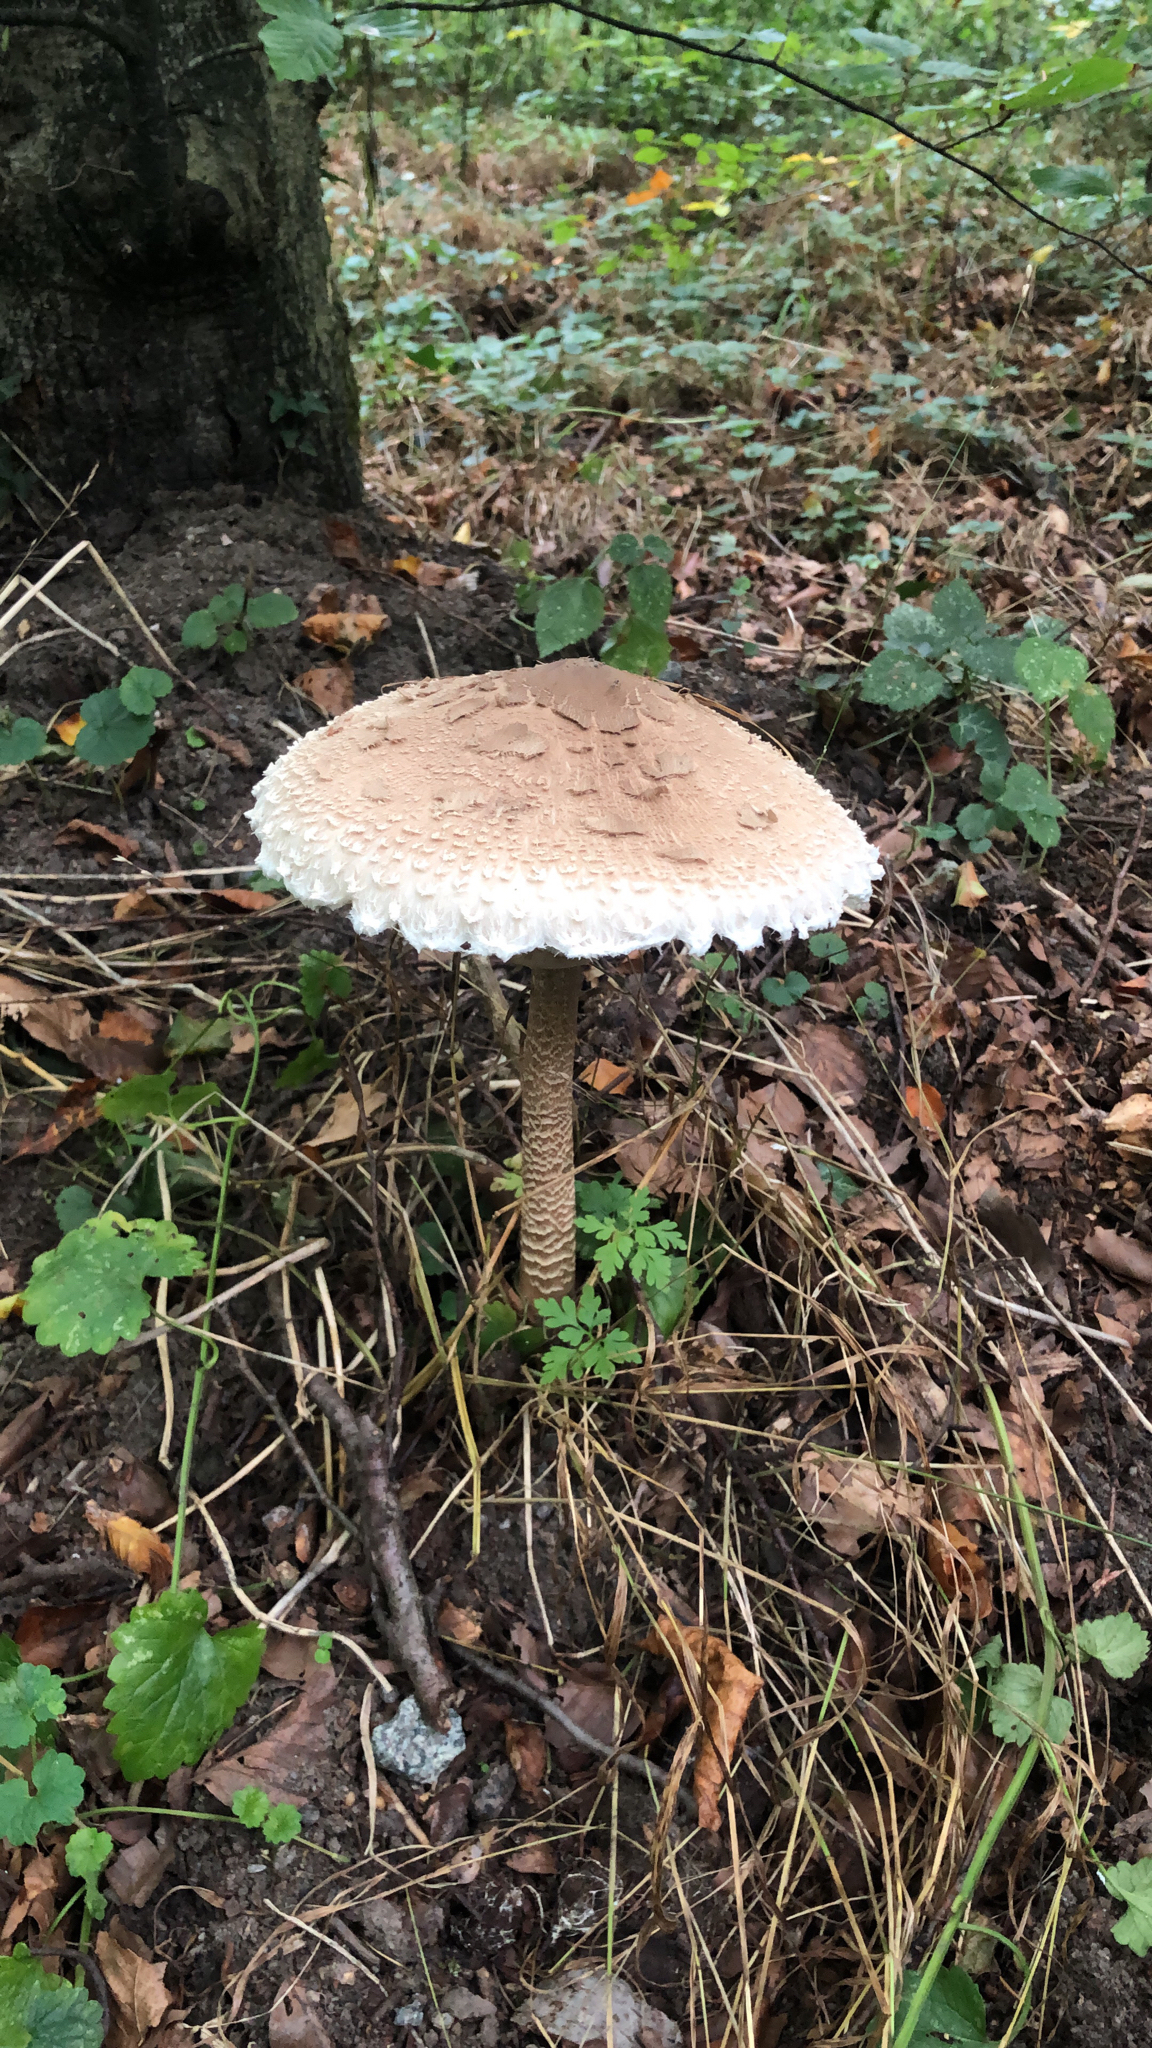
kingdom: Fungi
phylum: Basidiomycota
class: Agaricomycetes
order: Agaricales
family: Agaricaceae
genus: Macrolepiota
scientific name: Macrolepiota procera
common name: Parasol
